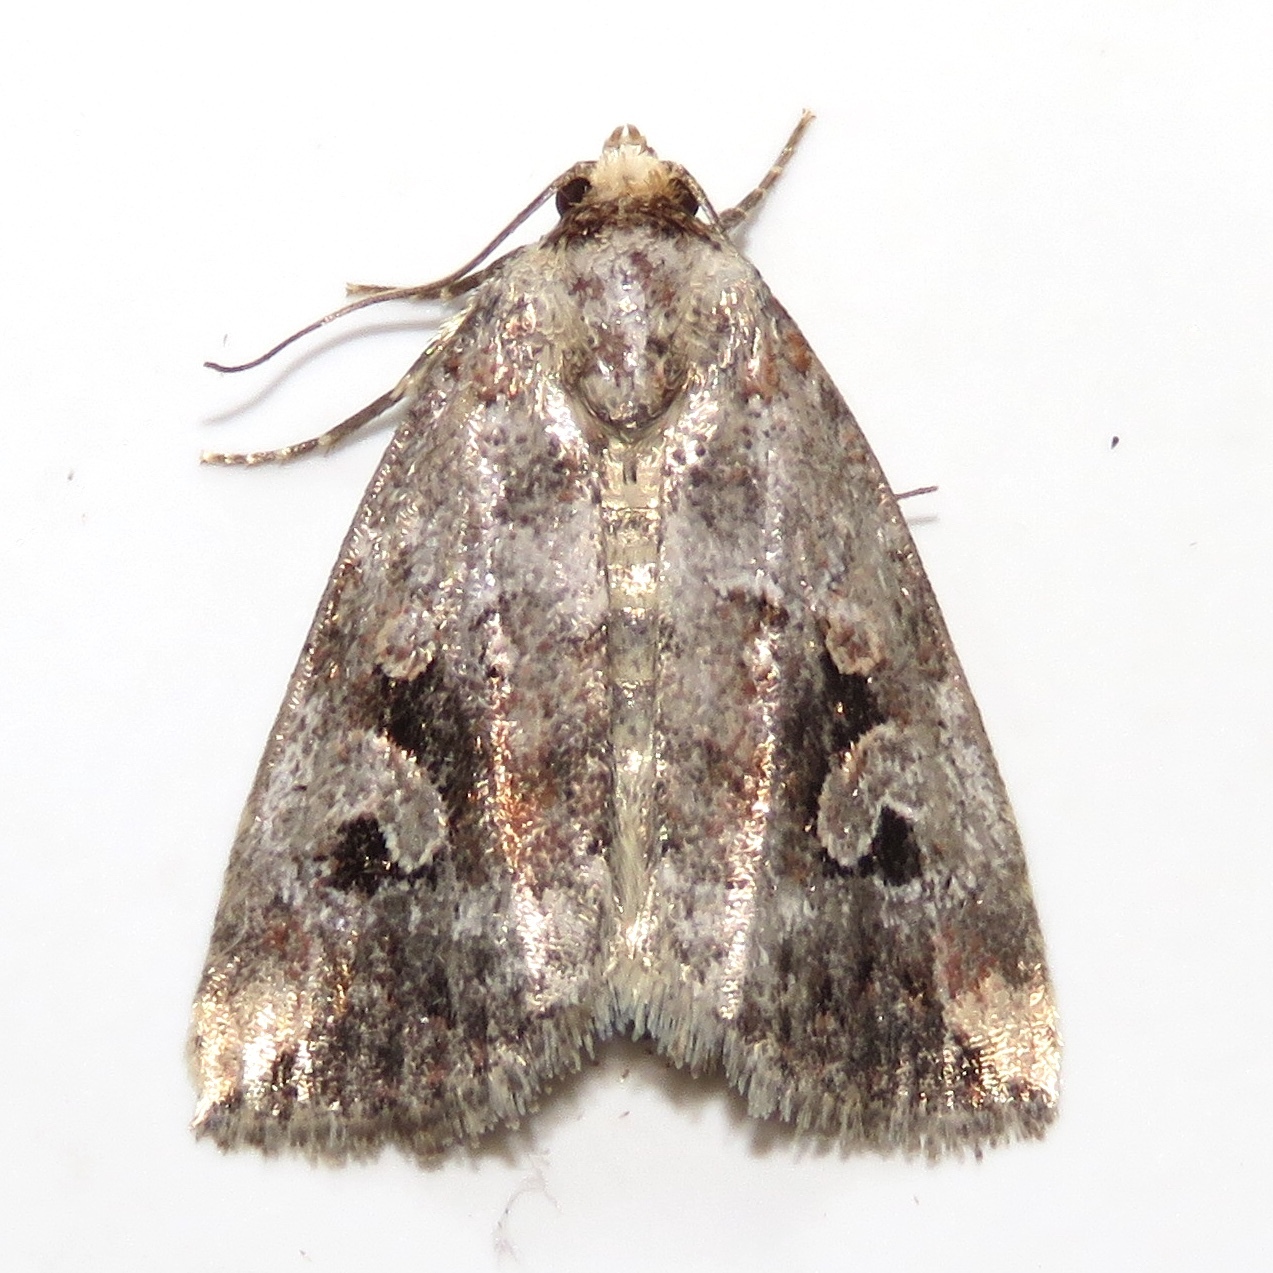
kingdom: Animalia
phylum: Arthropoda
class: Insecta
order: Lepidoptera
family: Noctuidae
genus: Elaphria
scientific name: Elaphria alapallida
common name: Pale-winged midget
